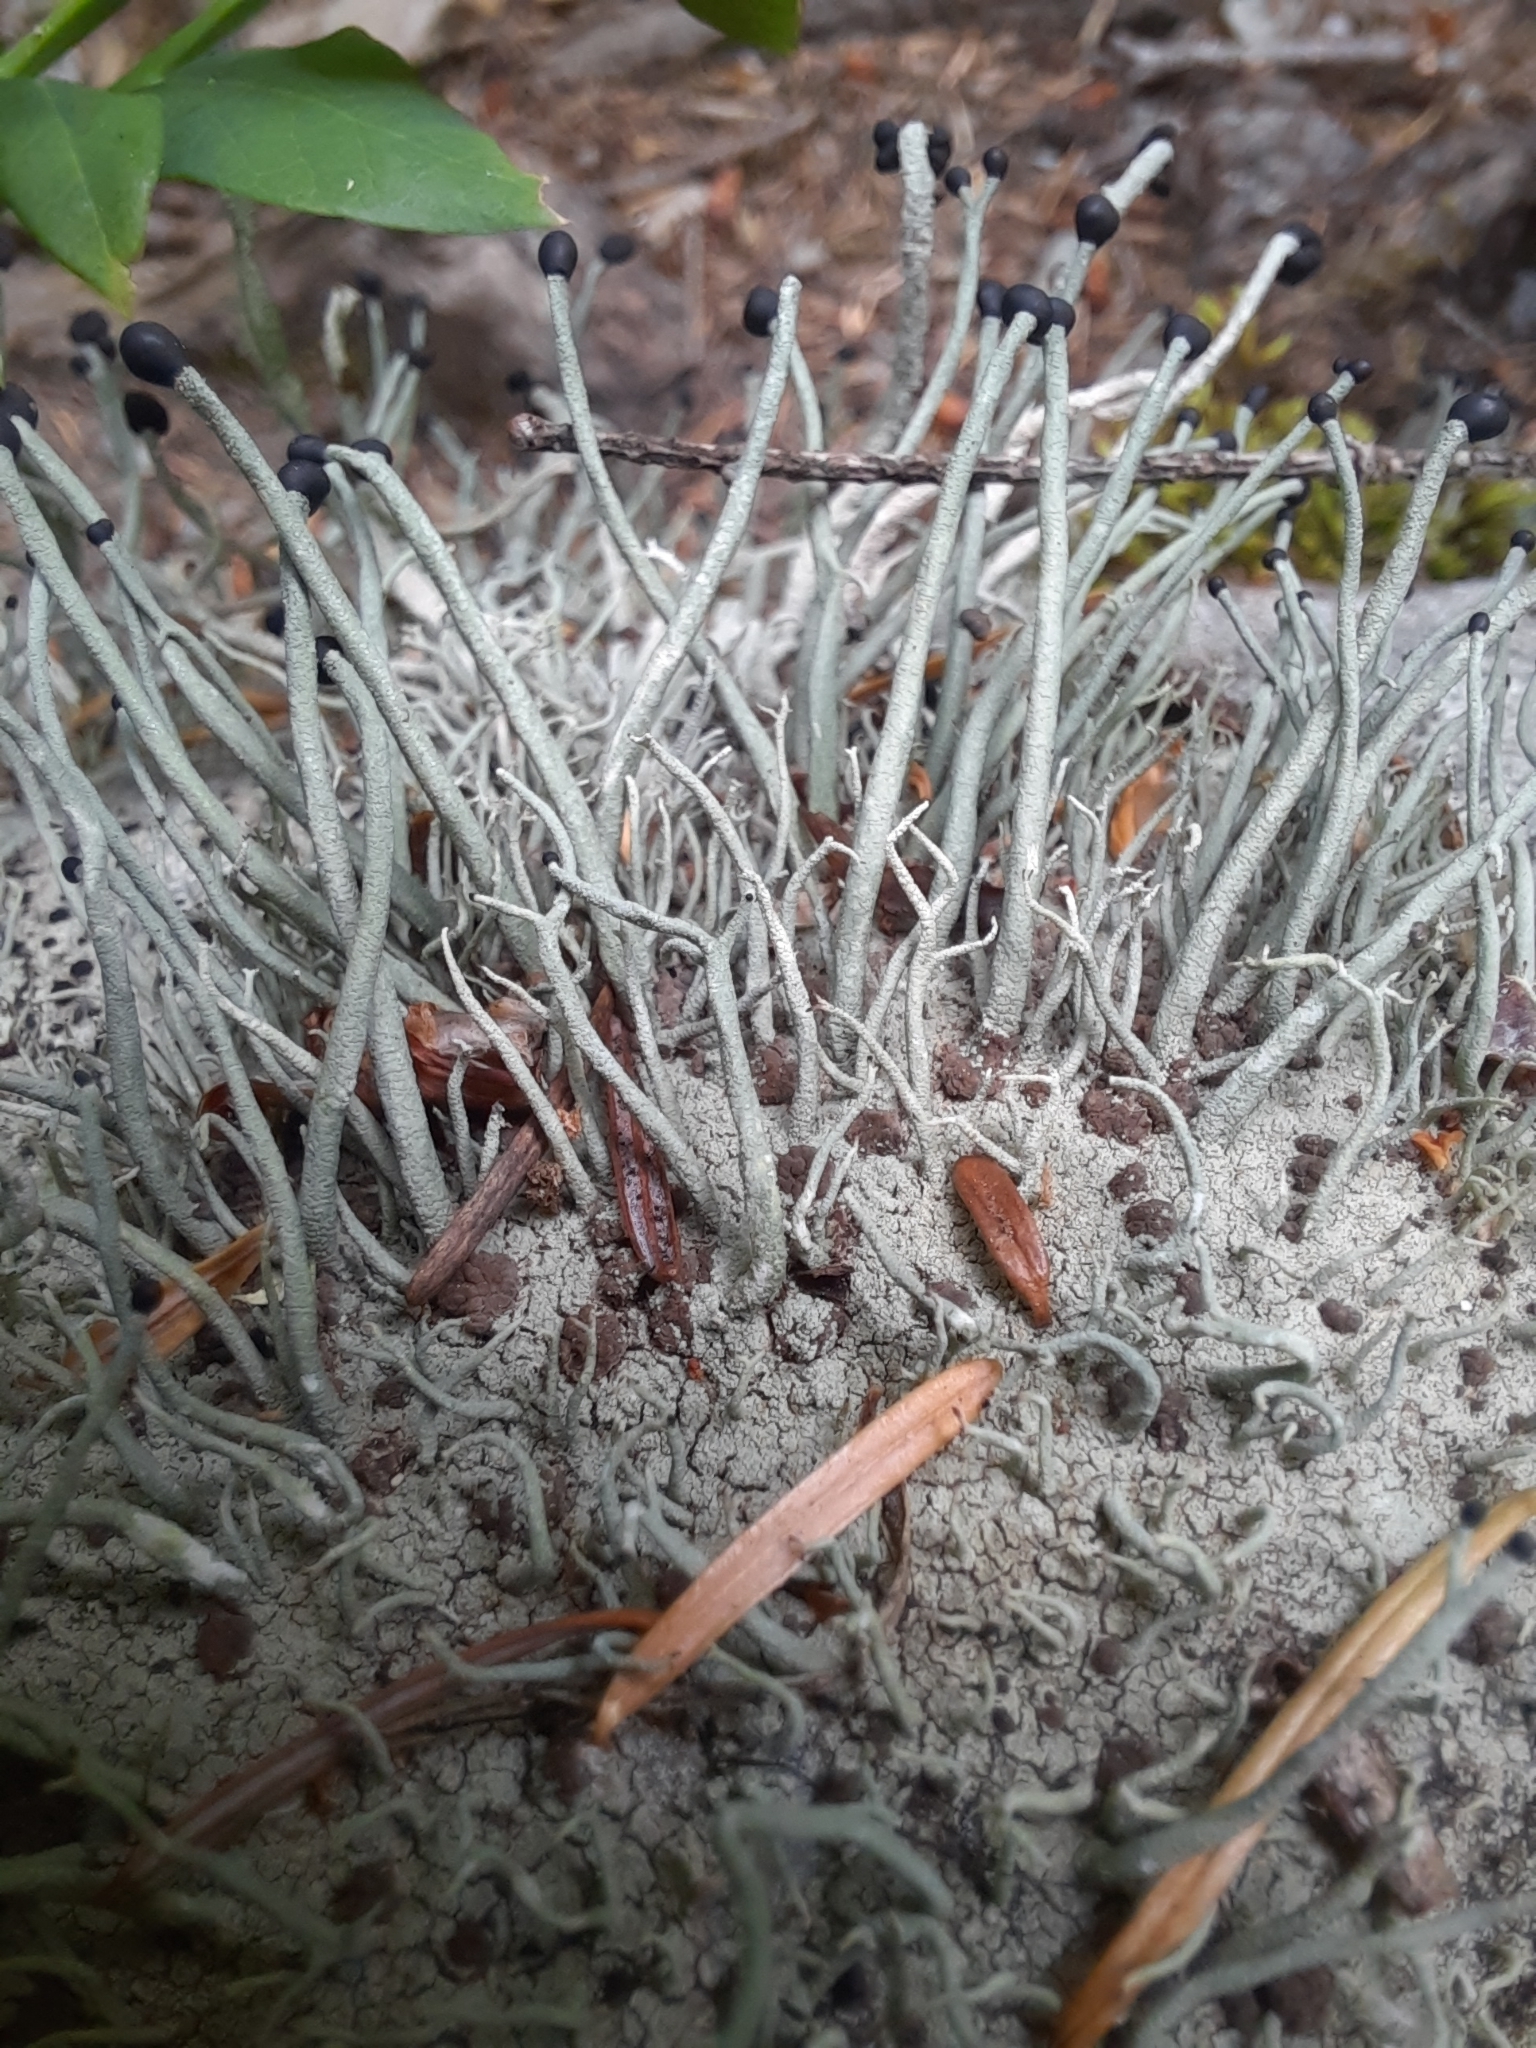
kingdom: Fungi
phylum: Ascomycota
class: Lecanoromycetes
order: Lecanorales
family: Cladoniaceae
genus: Pilophorus
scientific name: Pilophorus acicularis
